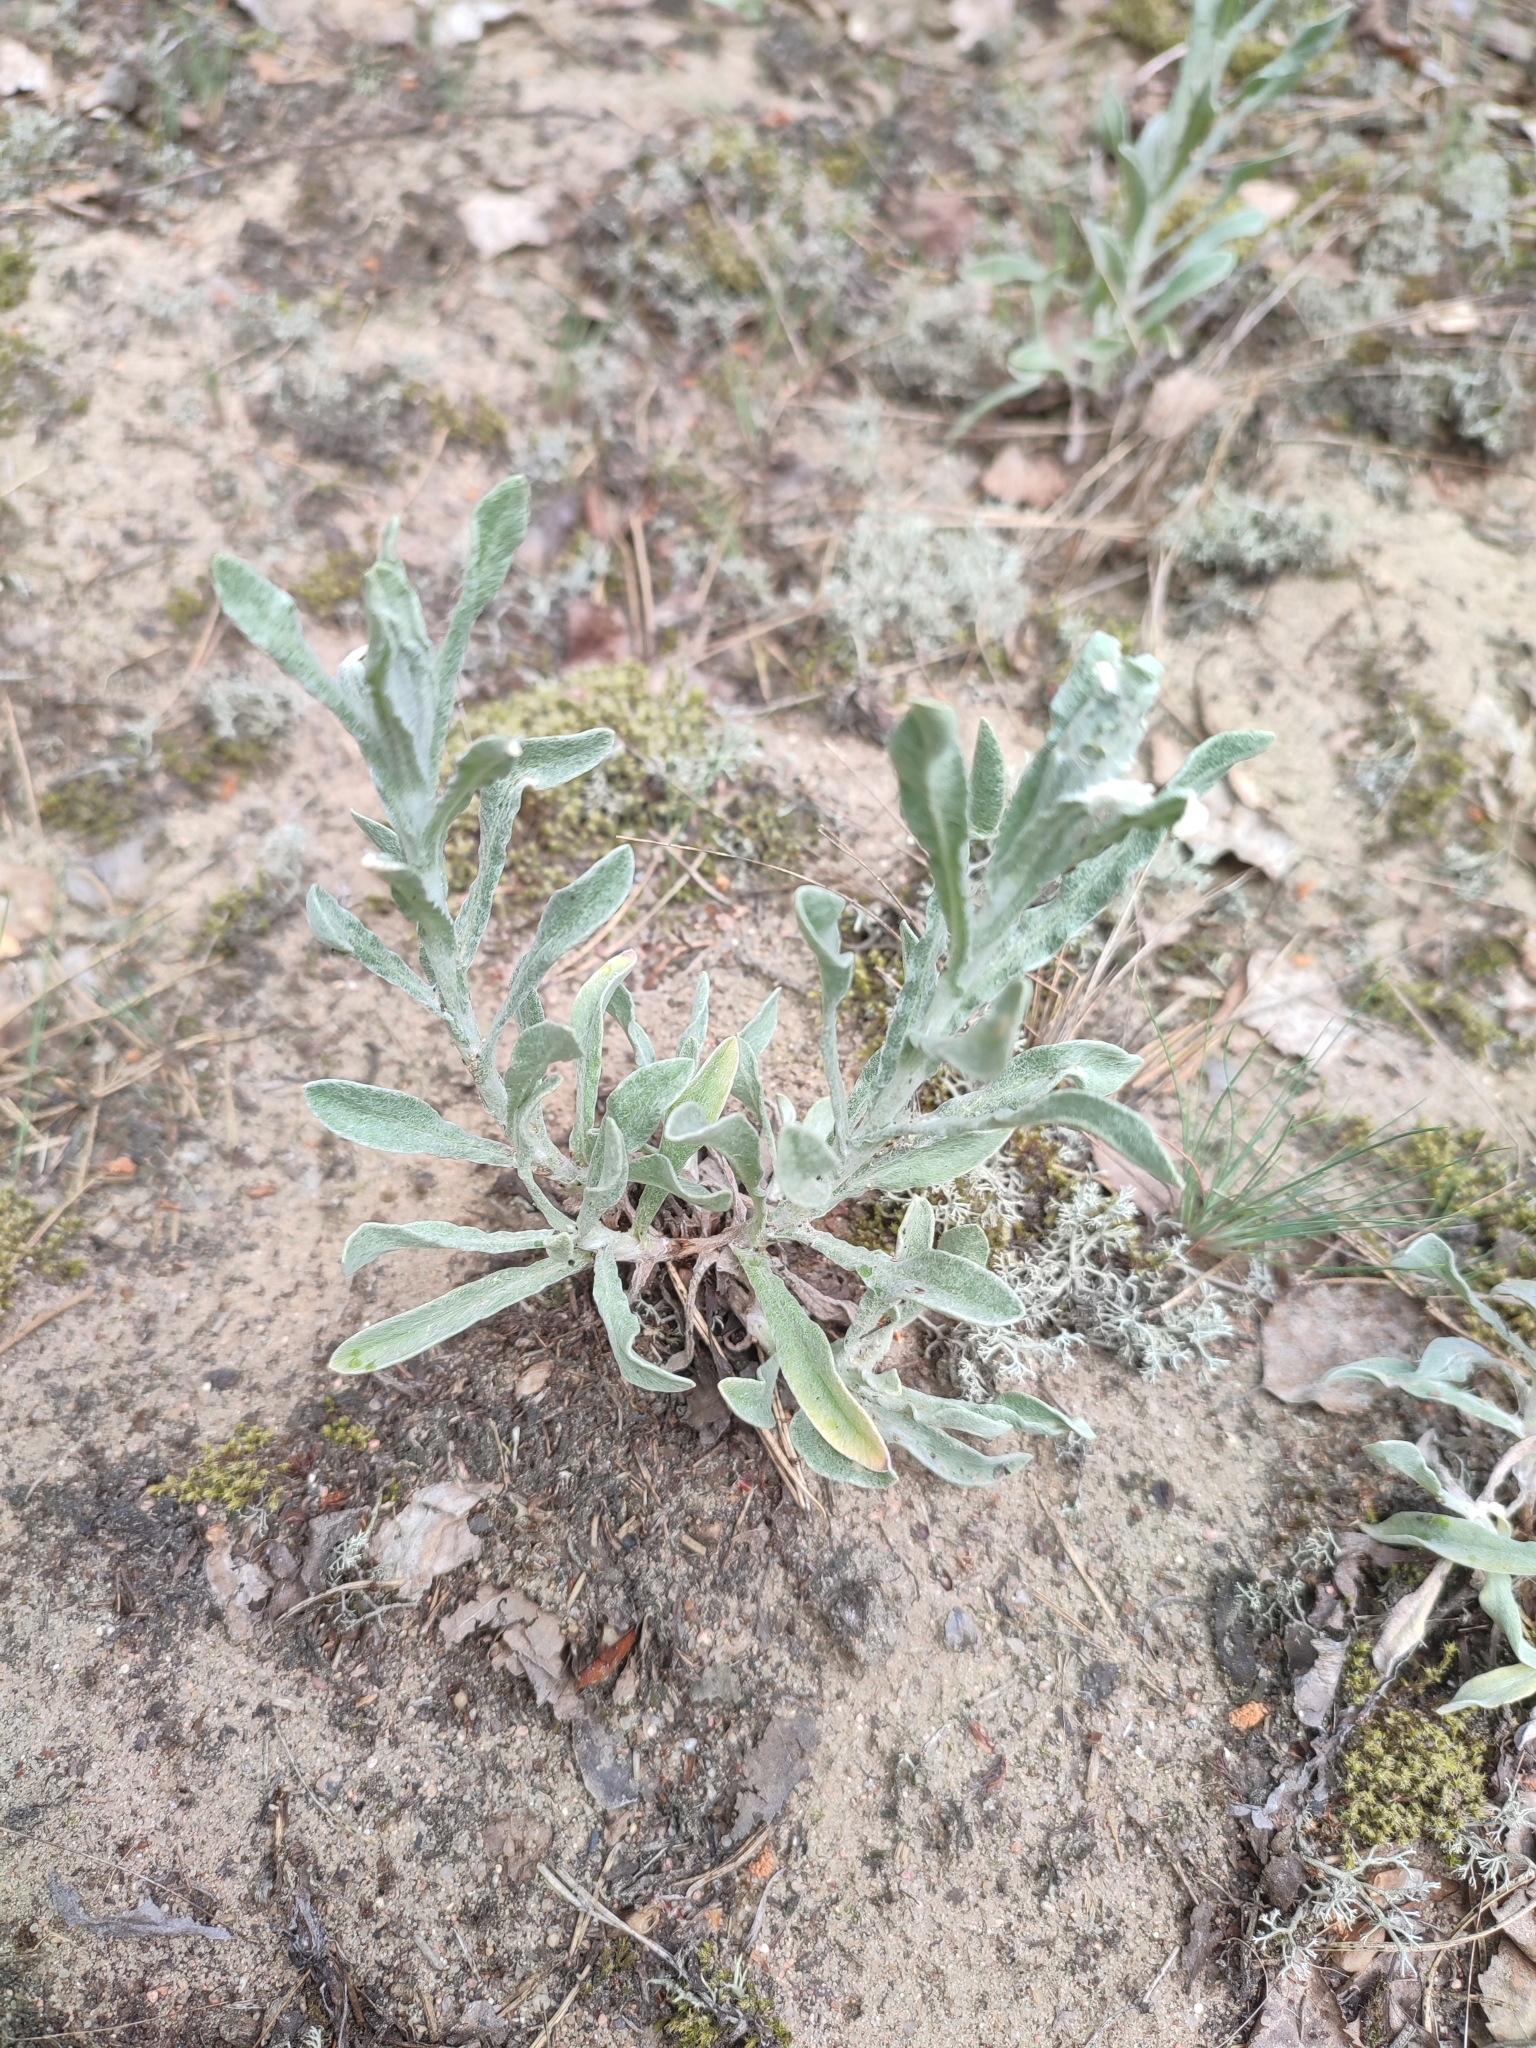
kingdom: Plantae
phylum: Tracheophyta
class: Magnoliopsida
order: Asterales
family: Asteraceae
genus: Helichrysum
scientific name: Helichrysum arenarium
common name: Strawflower
